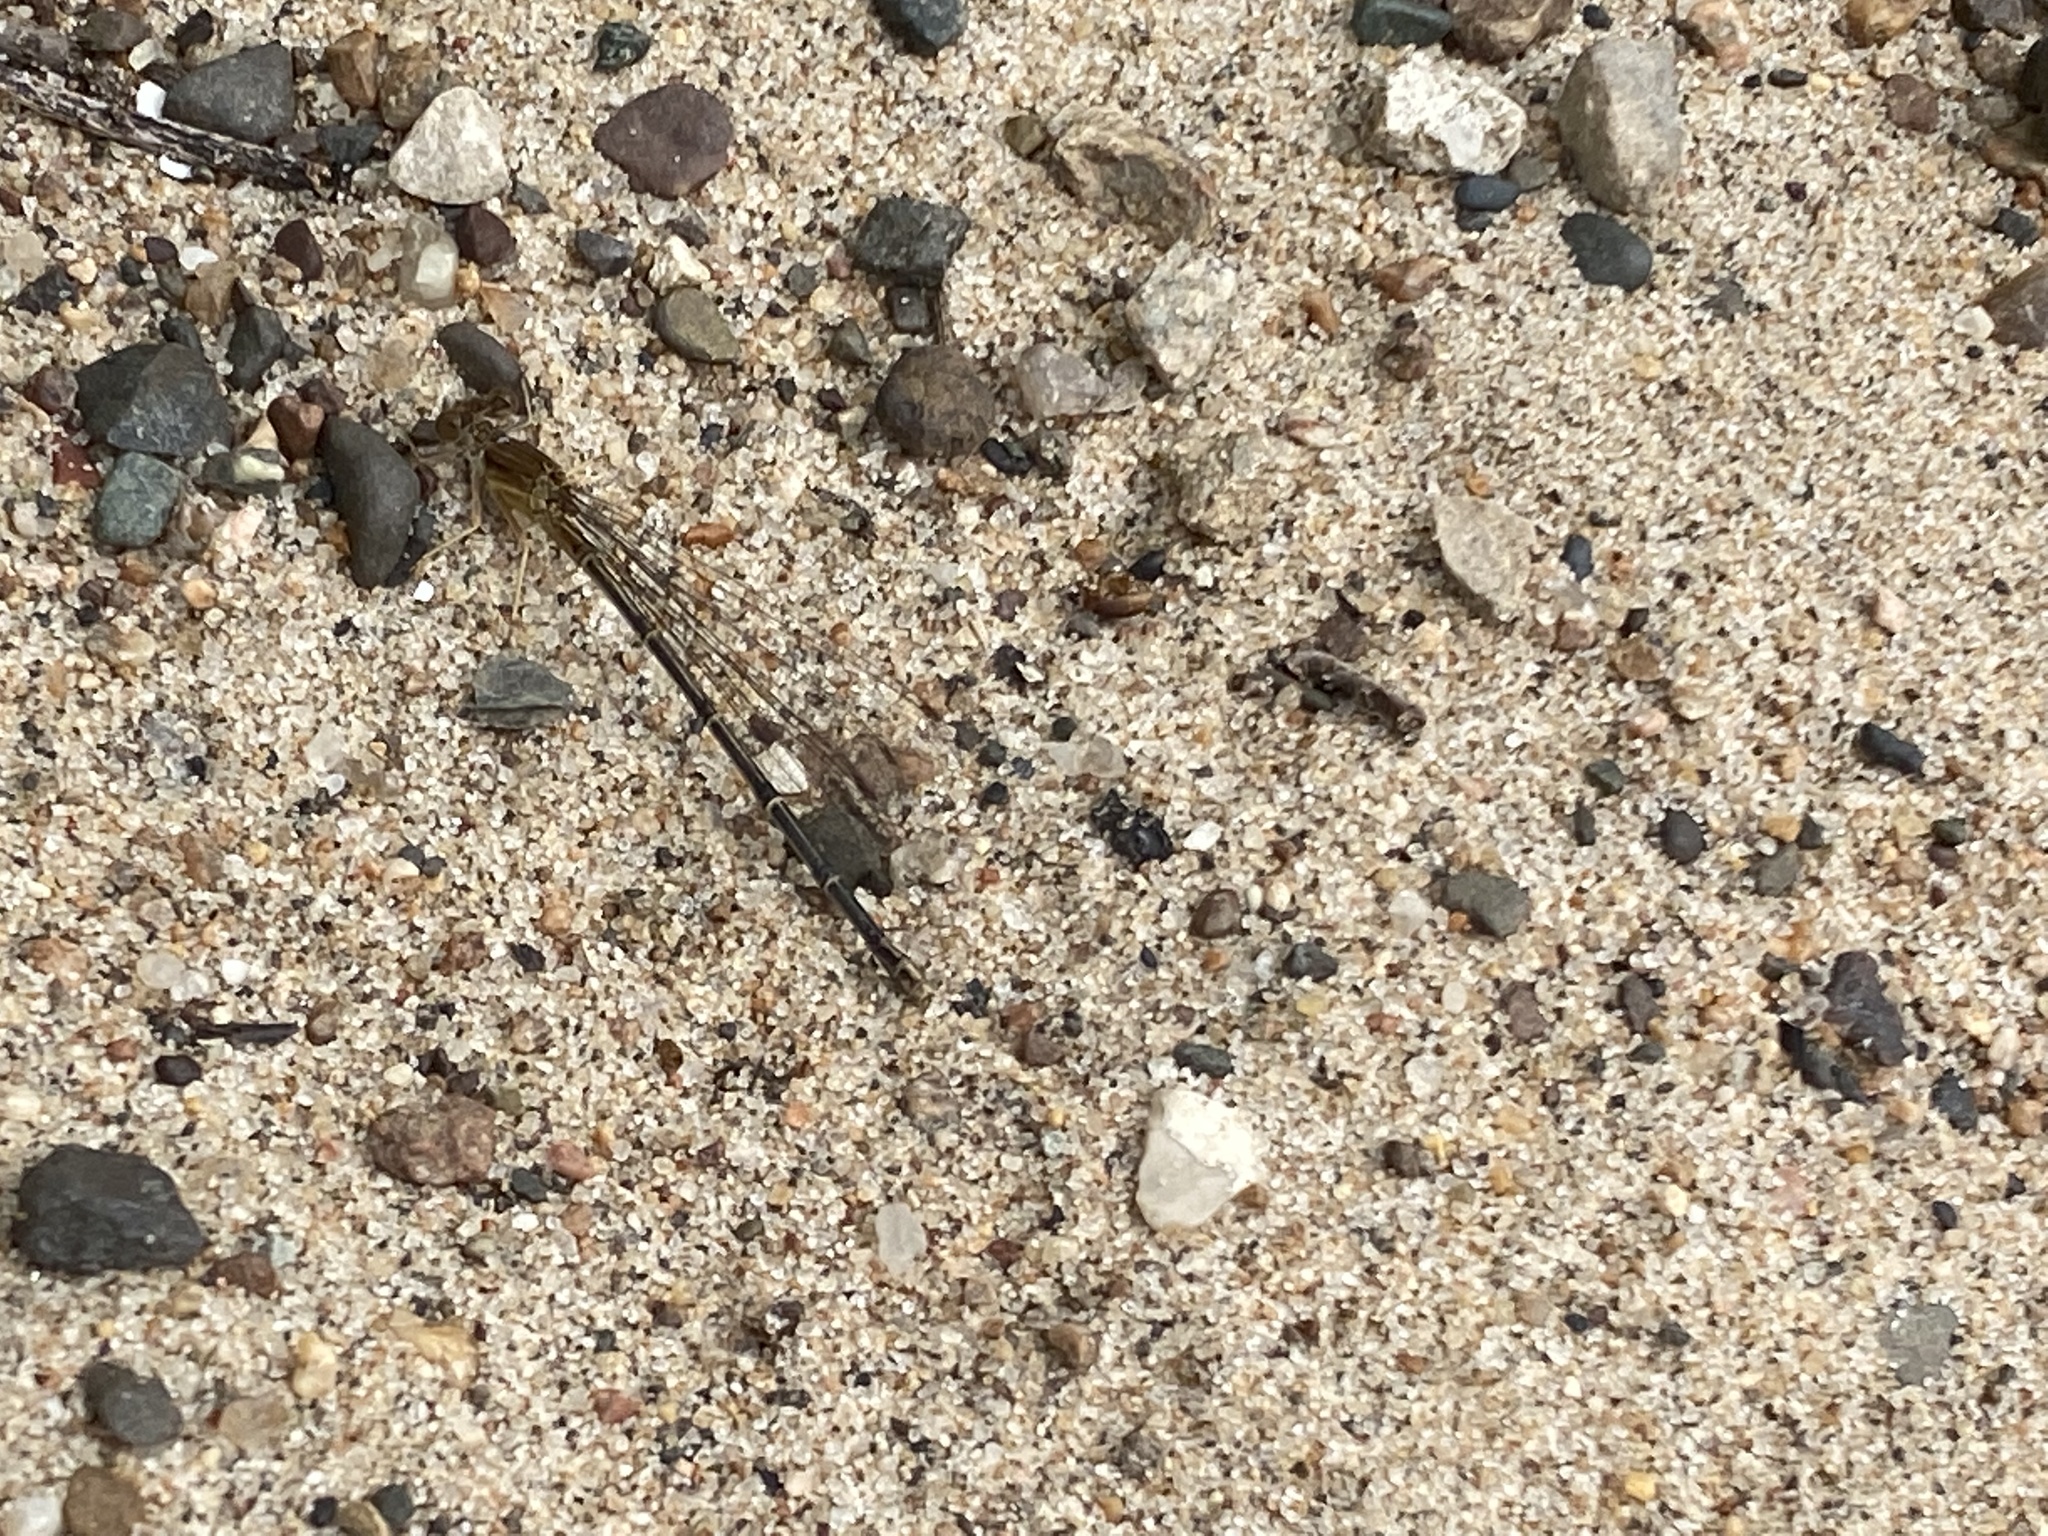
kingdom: Animalia
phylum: Arthropoda
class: Insecta
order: Odonata
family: Coenagrionidae
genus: Argia
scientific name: Argia apicalis
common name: Blue-fronted dancer
